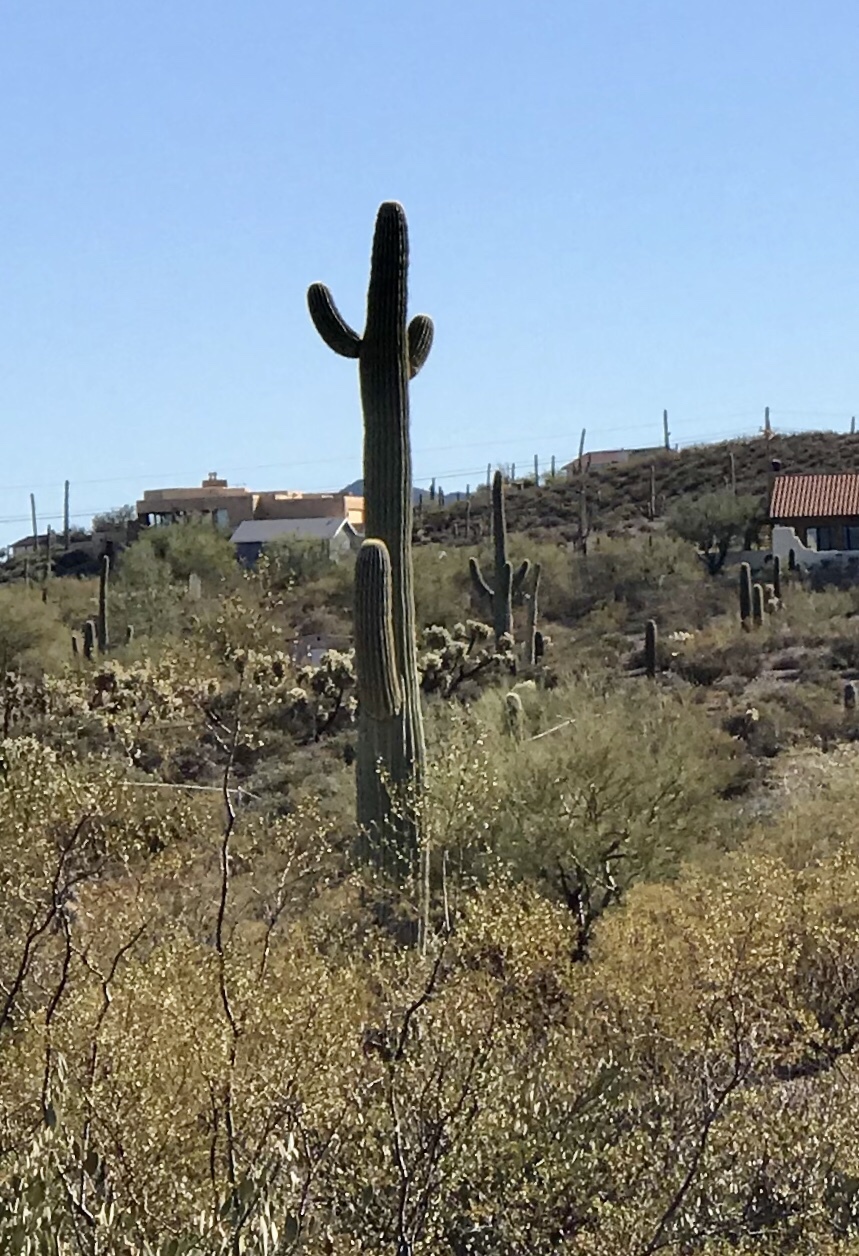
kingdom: Plantae
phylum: Tracheophyta
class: Magnoliopsida
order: Caryophyllales
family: Cactaceae
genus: Carnegiea
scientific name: Carnegiea gigantea
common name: Saguaro
